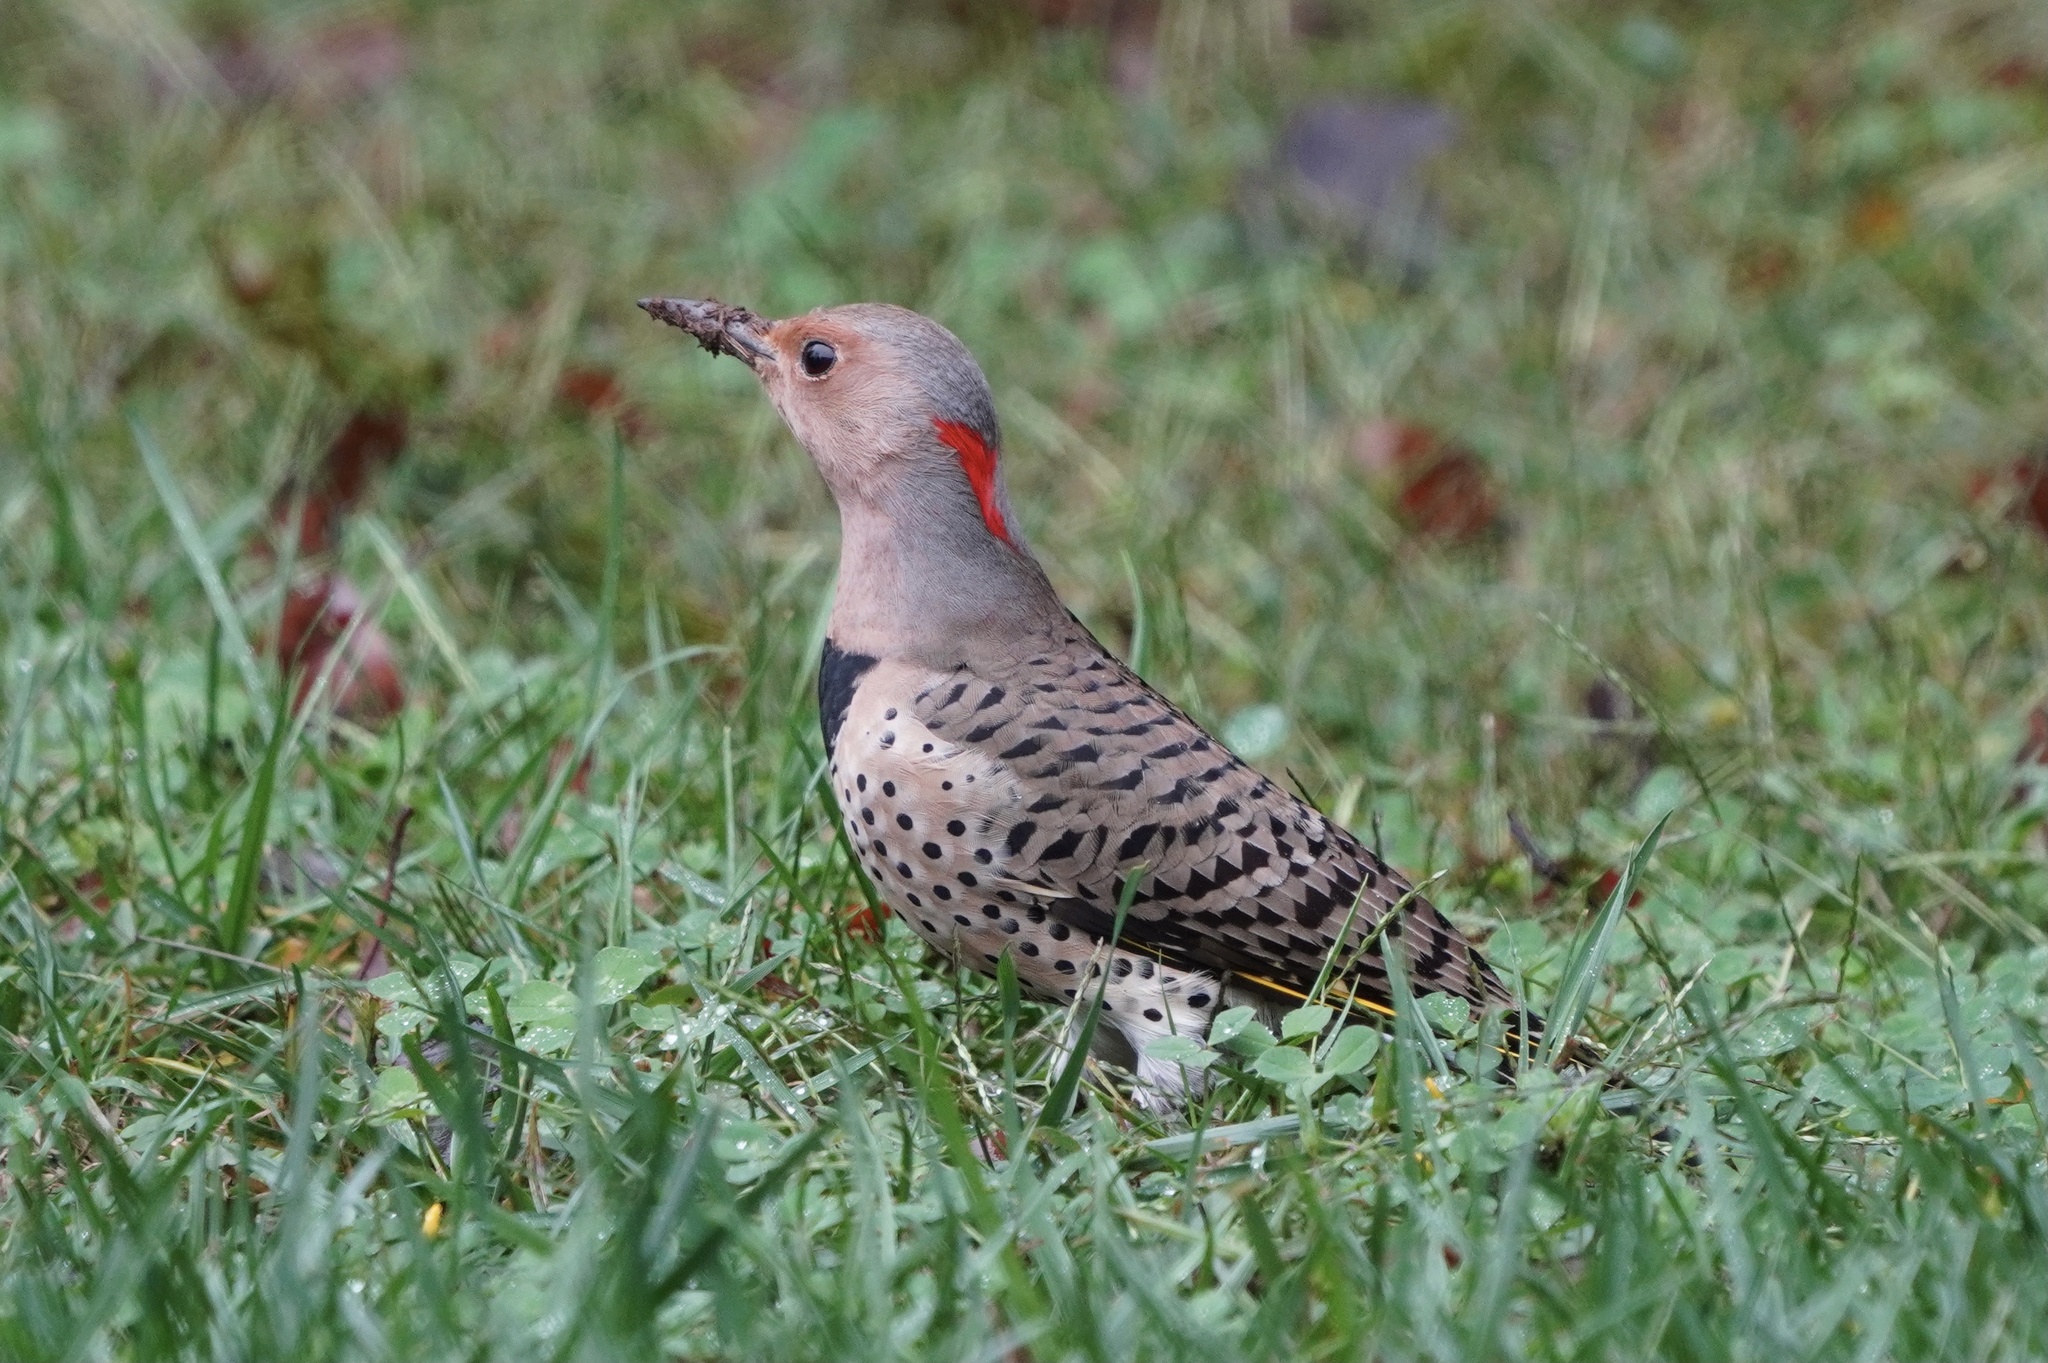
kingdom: Animalia
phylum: Chordata
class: Aves
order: Piciformes
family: Picidae
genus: Colaptes
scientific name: Colaptes auratus
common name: Northern flicker
